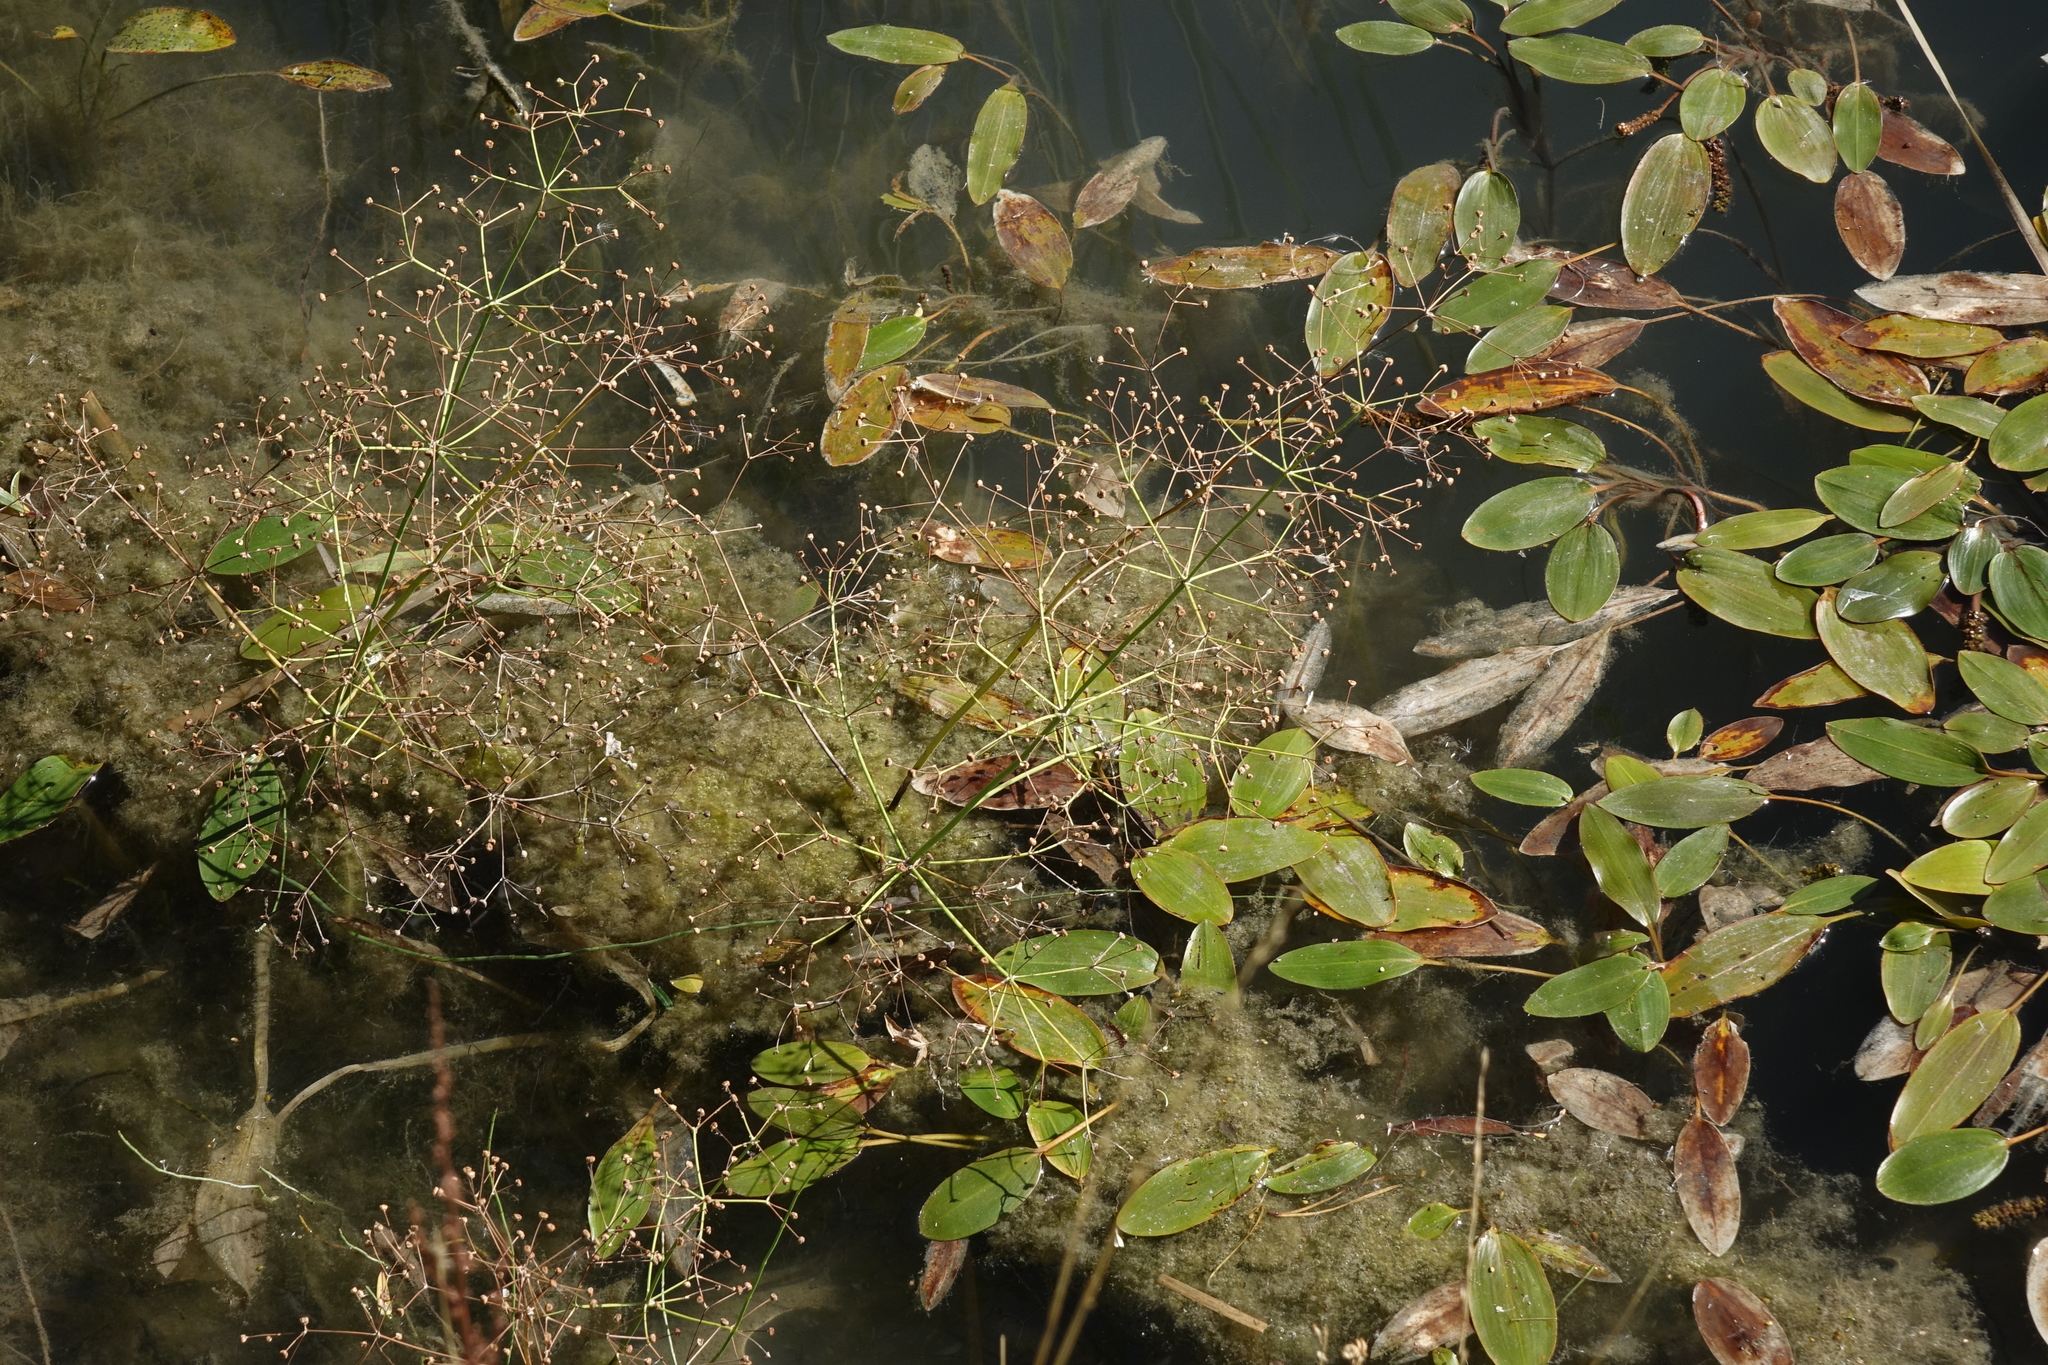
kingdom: Plantae
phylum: Tracheophyta
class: Liliopsida
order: Alismatales
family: Alismataceae
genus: Alisma
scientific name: Alisma plantago-aquatica
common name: Water-plantain
